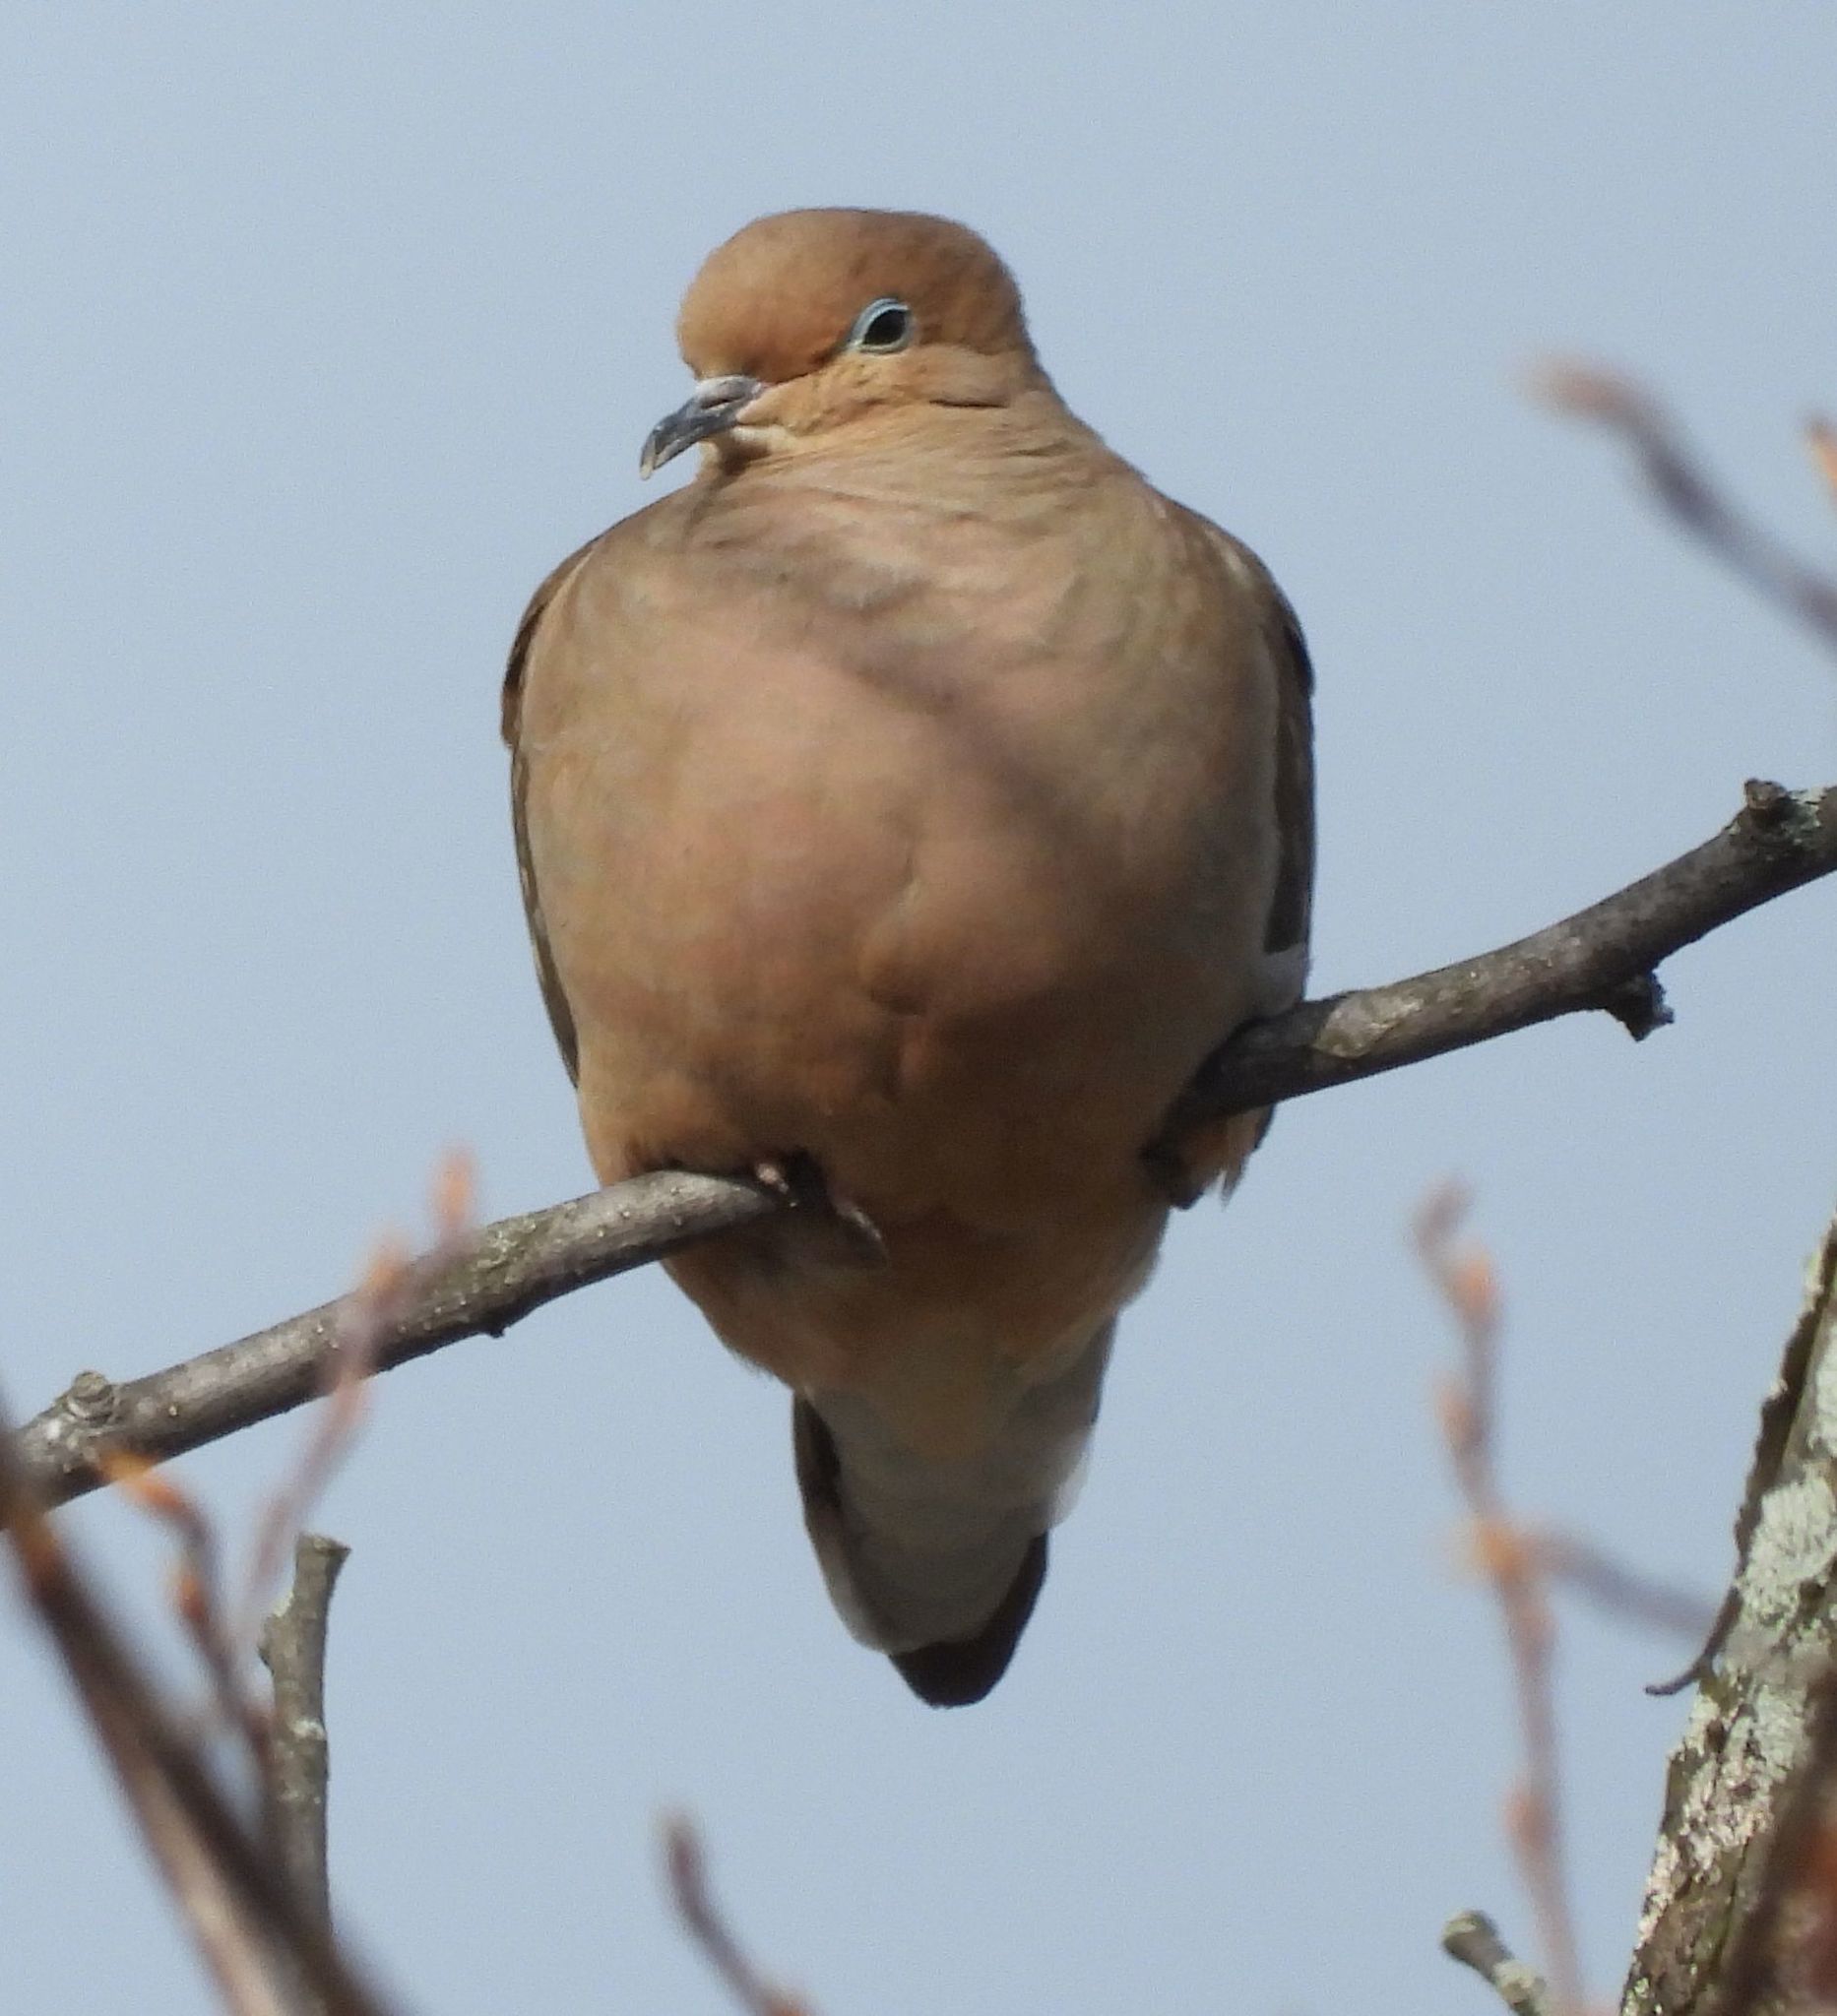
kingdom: Animalia
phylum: Chordata
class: Aves
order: Columbiformes
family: Columbidae
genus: Zenaida
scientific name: Zenaida macroura
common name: Mourning dove
